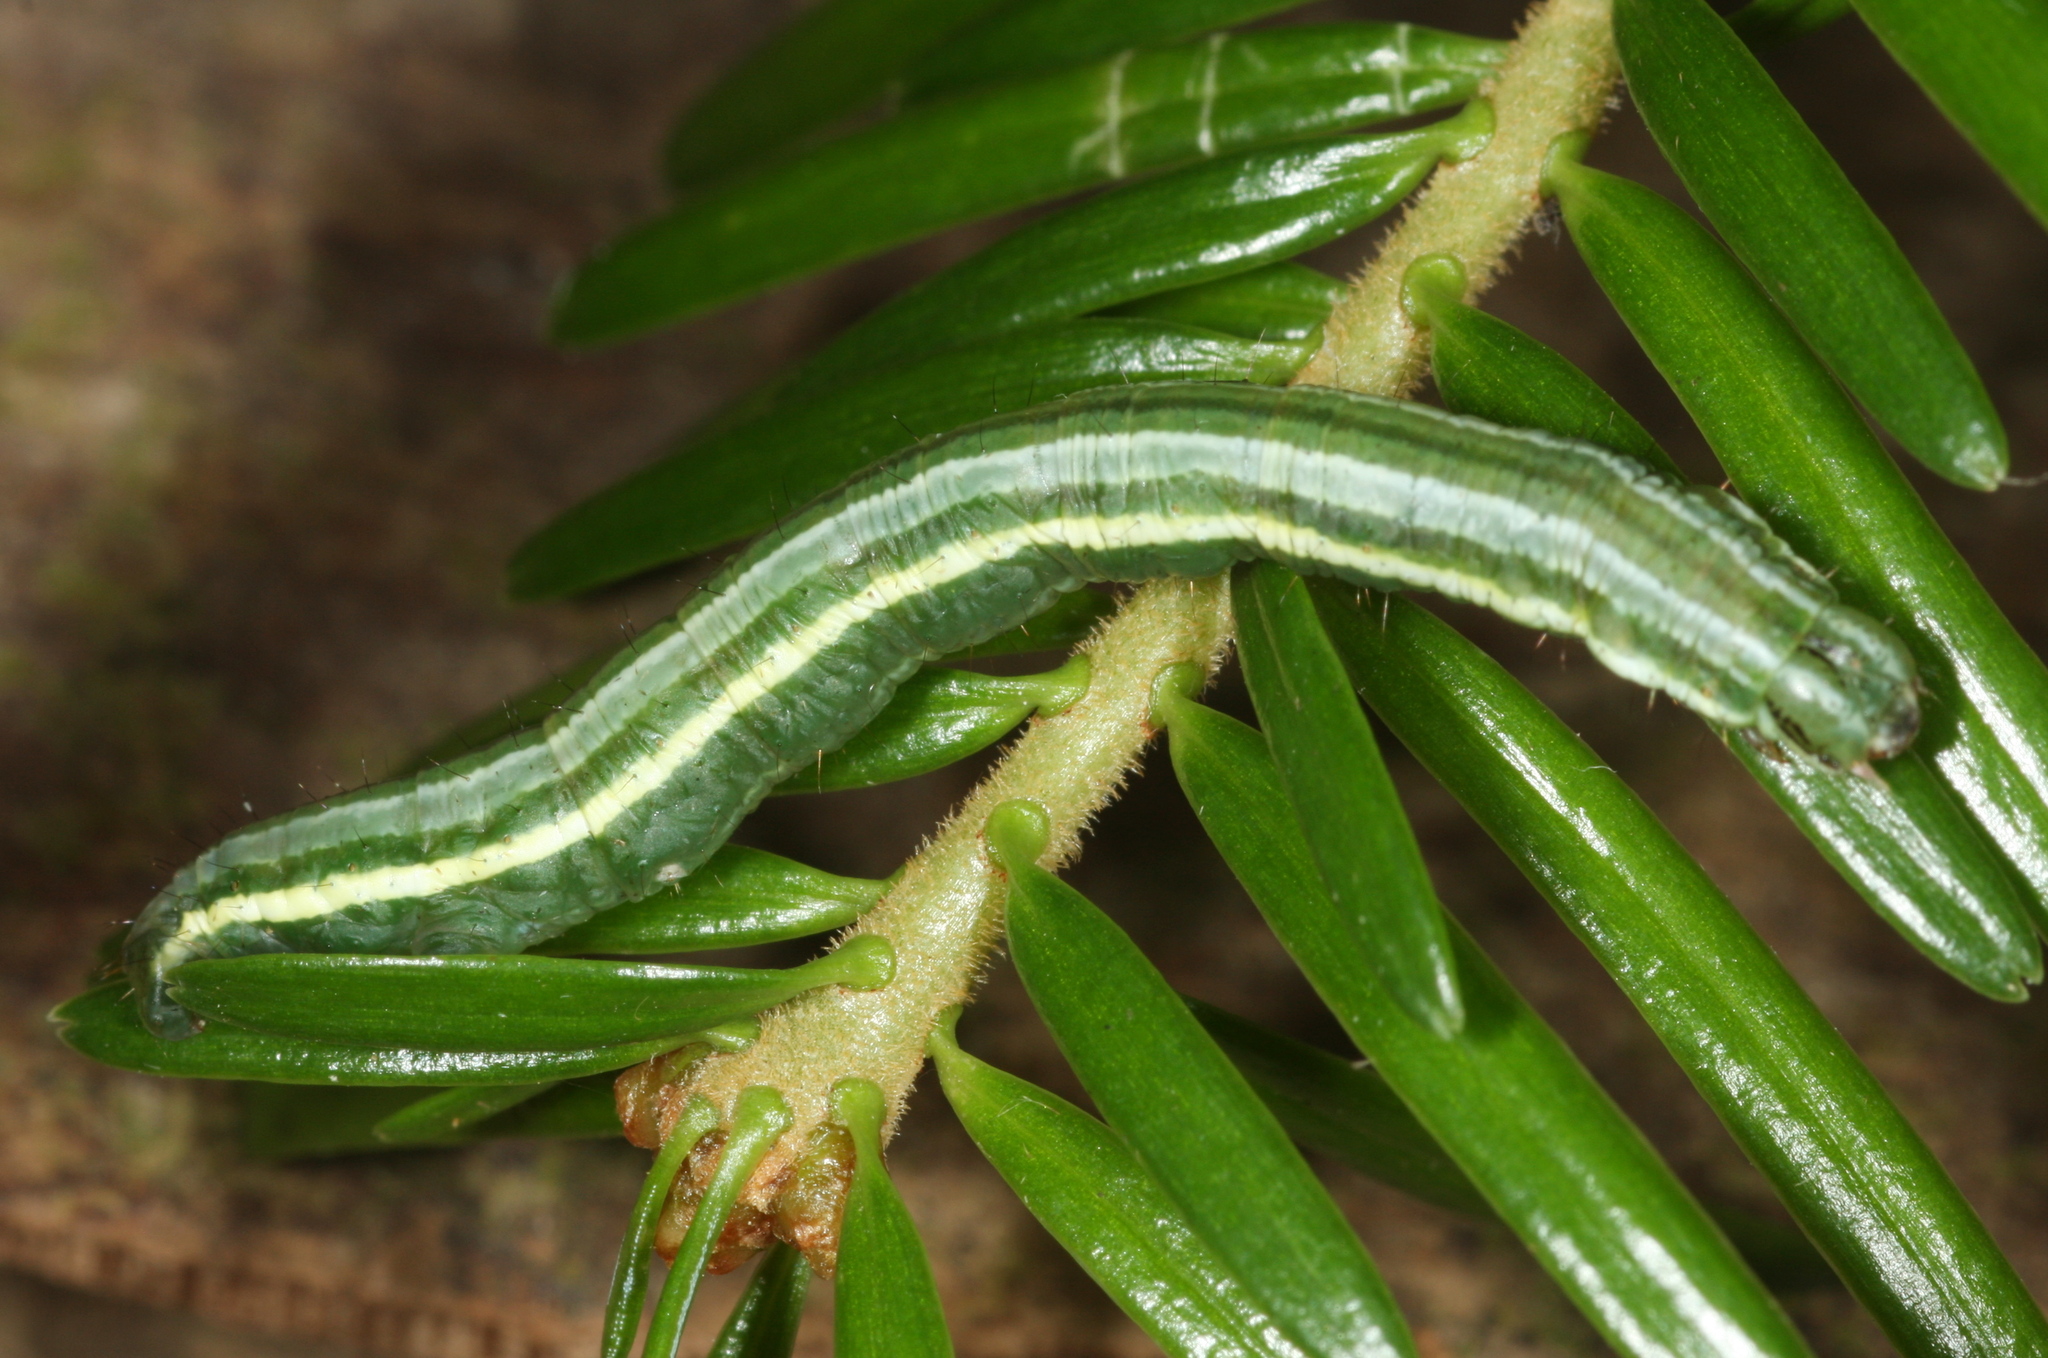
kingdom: Animalia
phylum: Arthropoda
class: Insecta
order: Lepidoptera
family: Geometridae
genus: Pungeleria
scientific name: Pungeleria capreolaria
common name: Banded pine carpet
